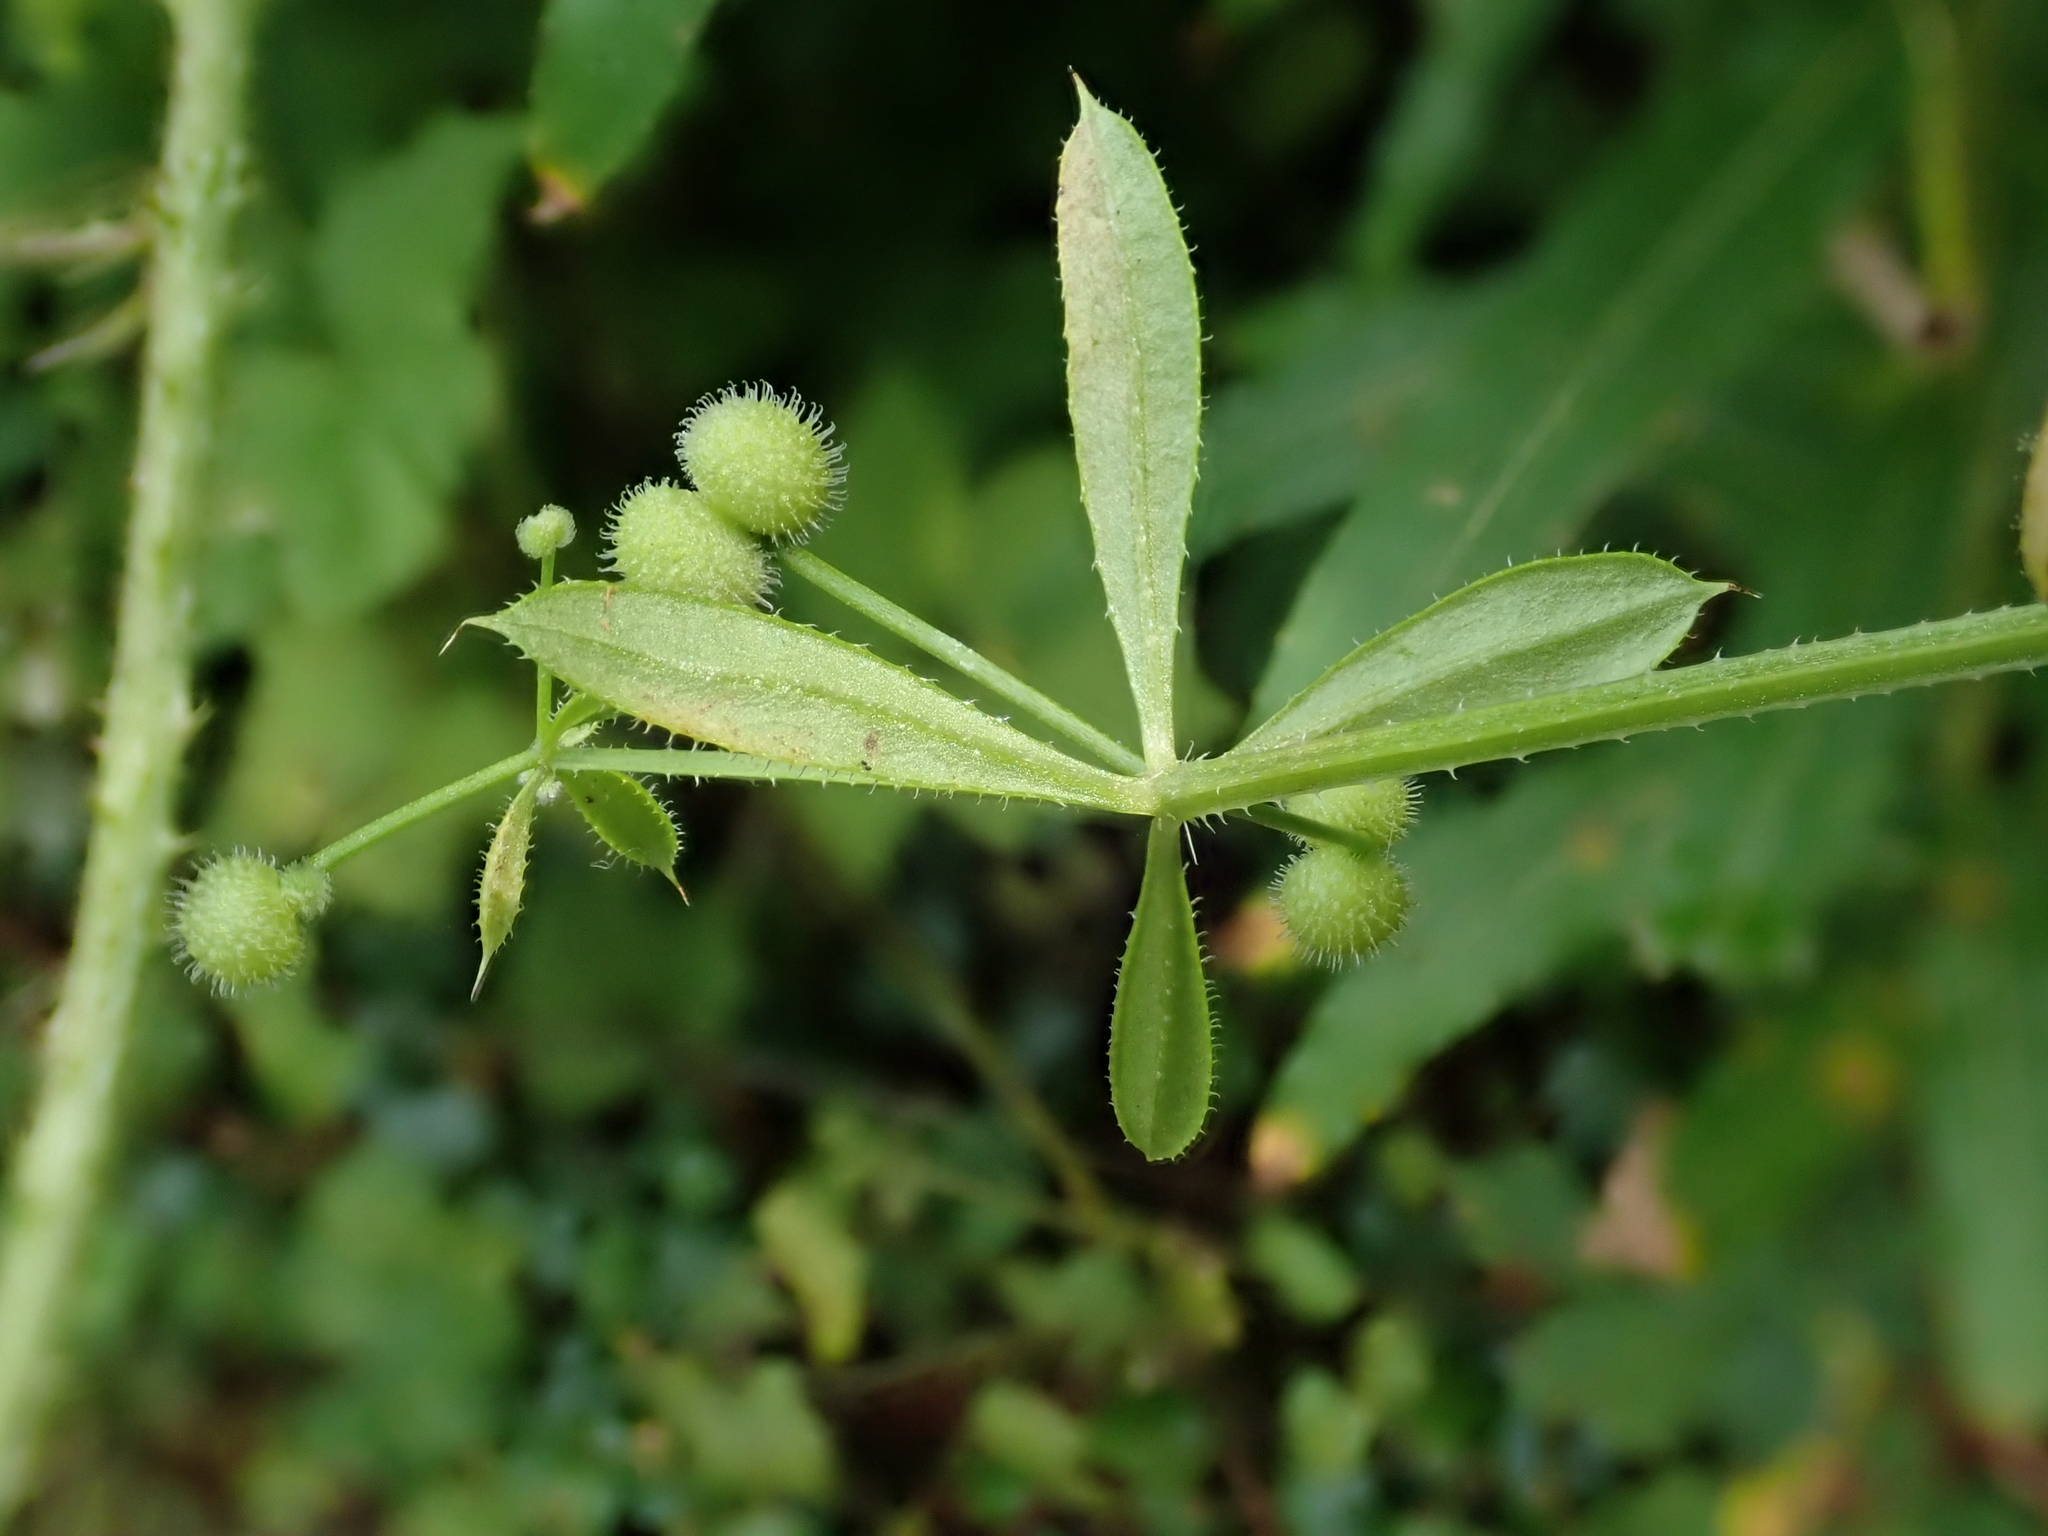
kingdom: Plantae
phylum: Tracheophyta
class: Magnoliopsida
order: Gentianales
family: Rubiaceae
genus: Galium
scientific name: Galium aparine
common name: Cleavers
